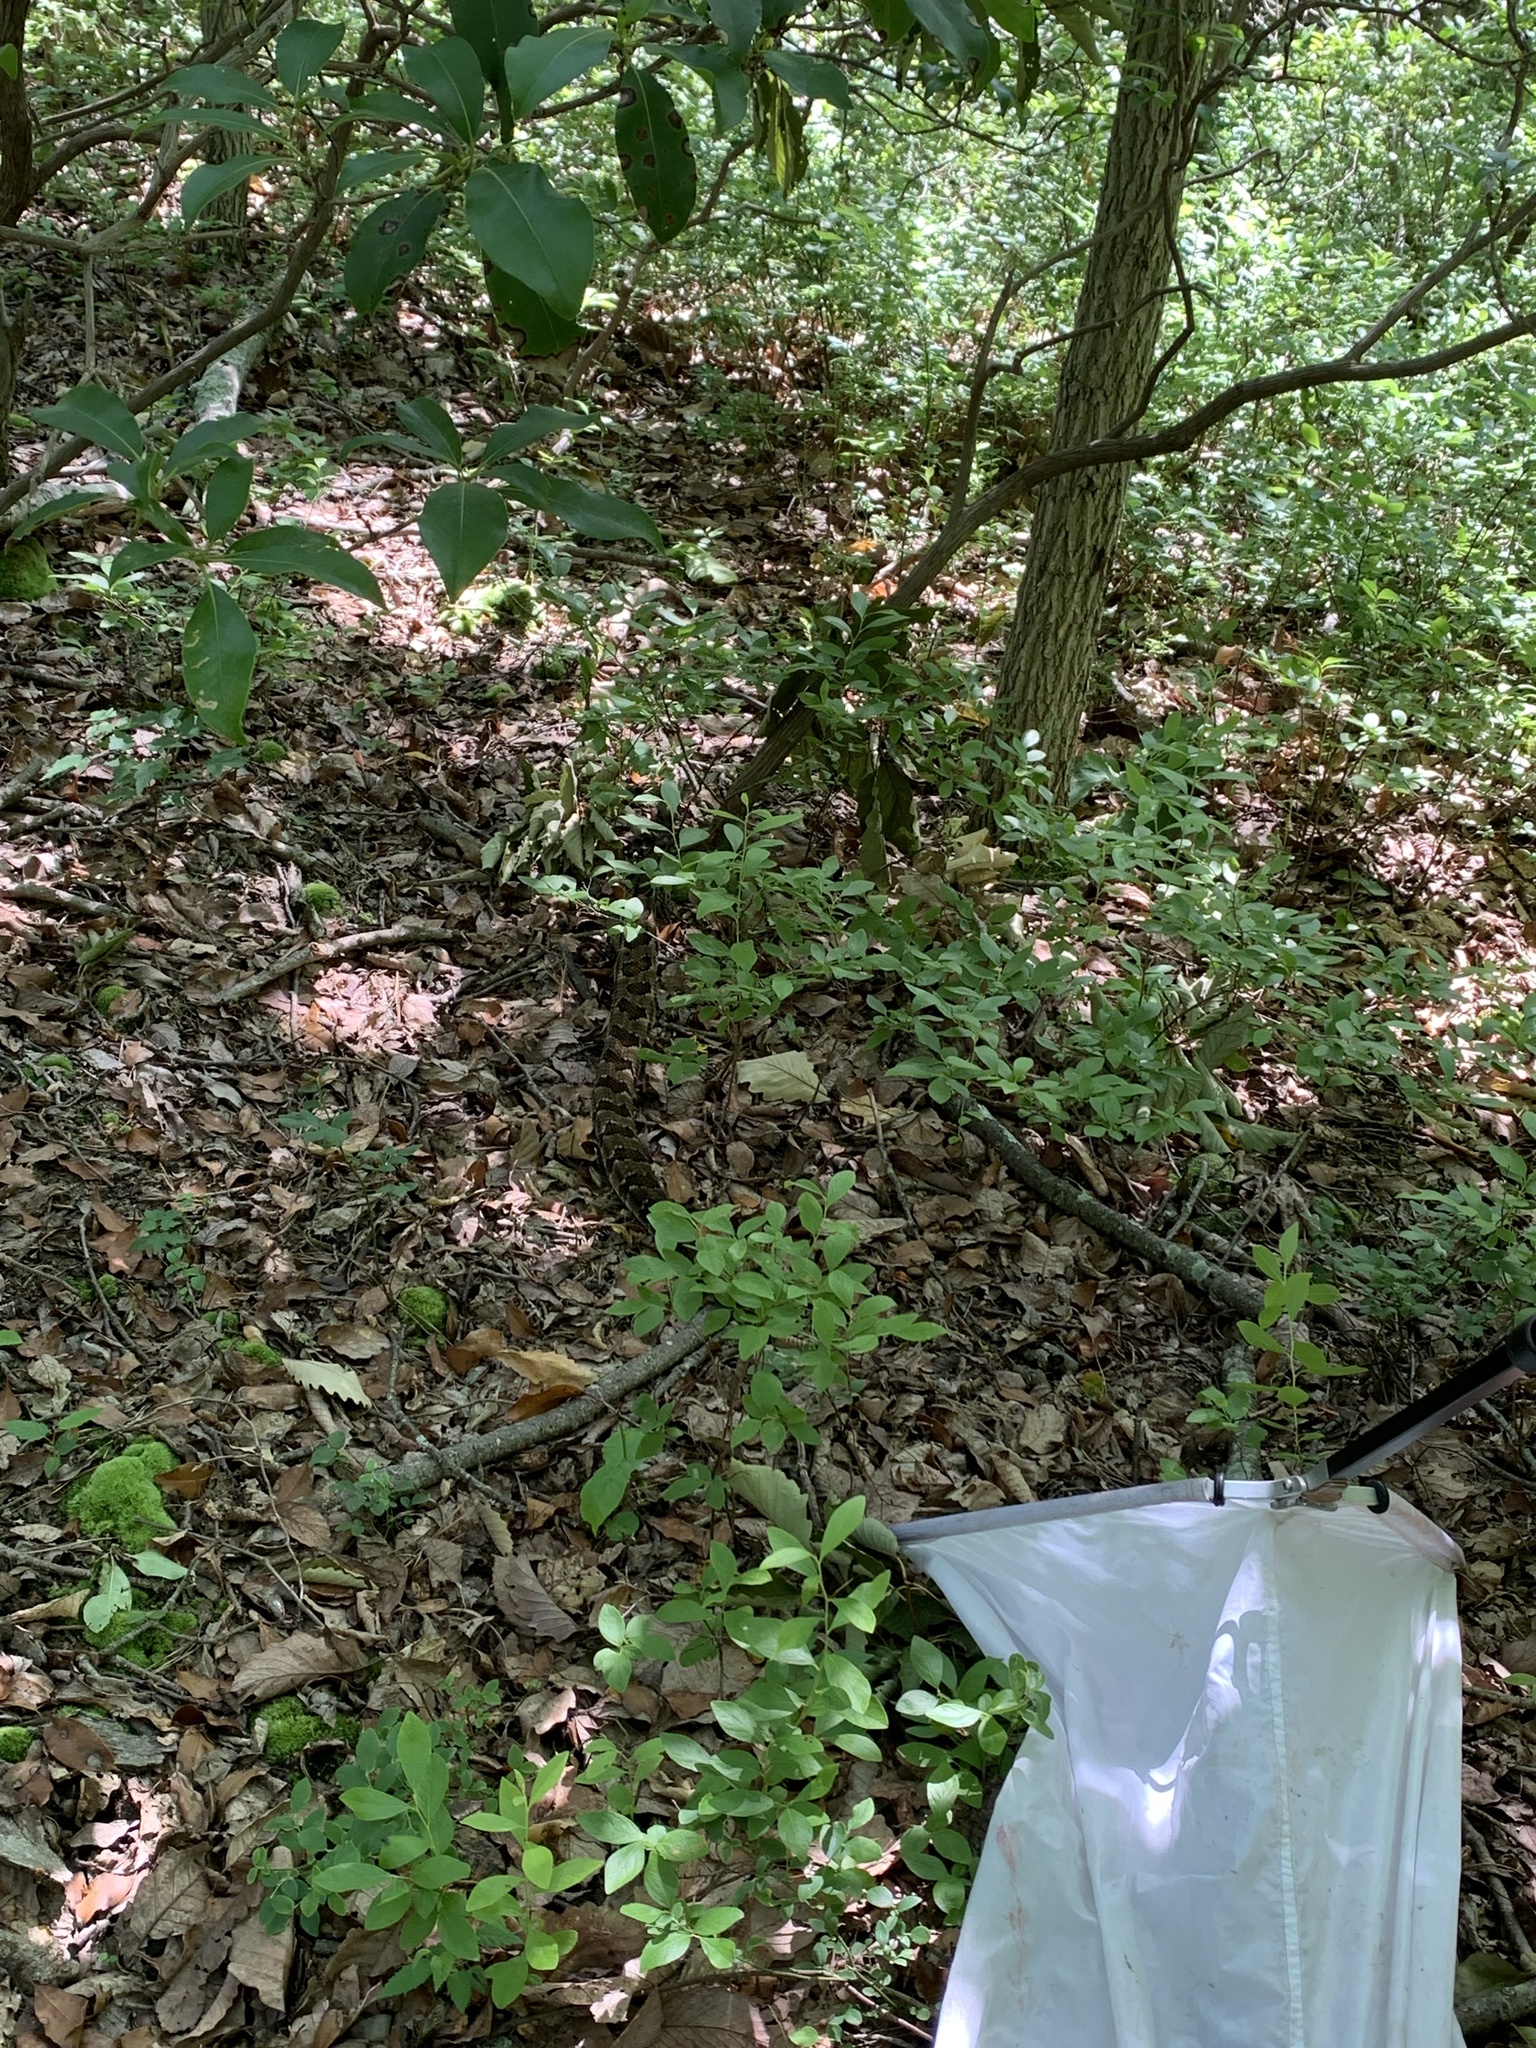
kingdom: Animalia
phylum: Chordata
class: Squamata
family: Viperidae
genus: Crotalus
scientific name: Crotalus horridus
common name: Timber rattlesnake
